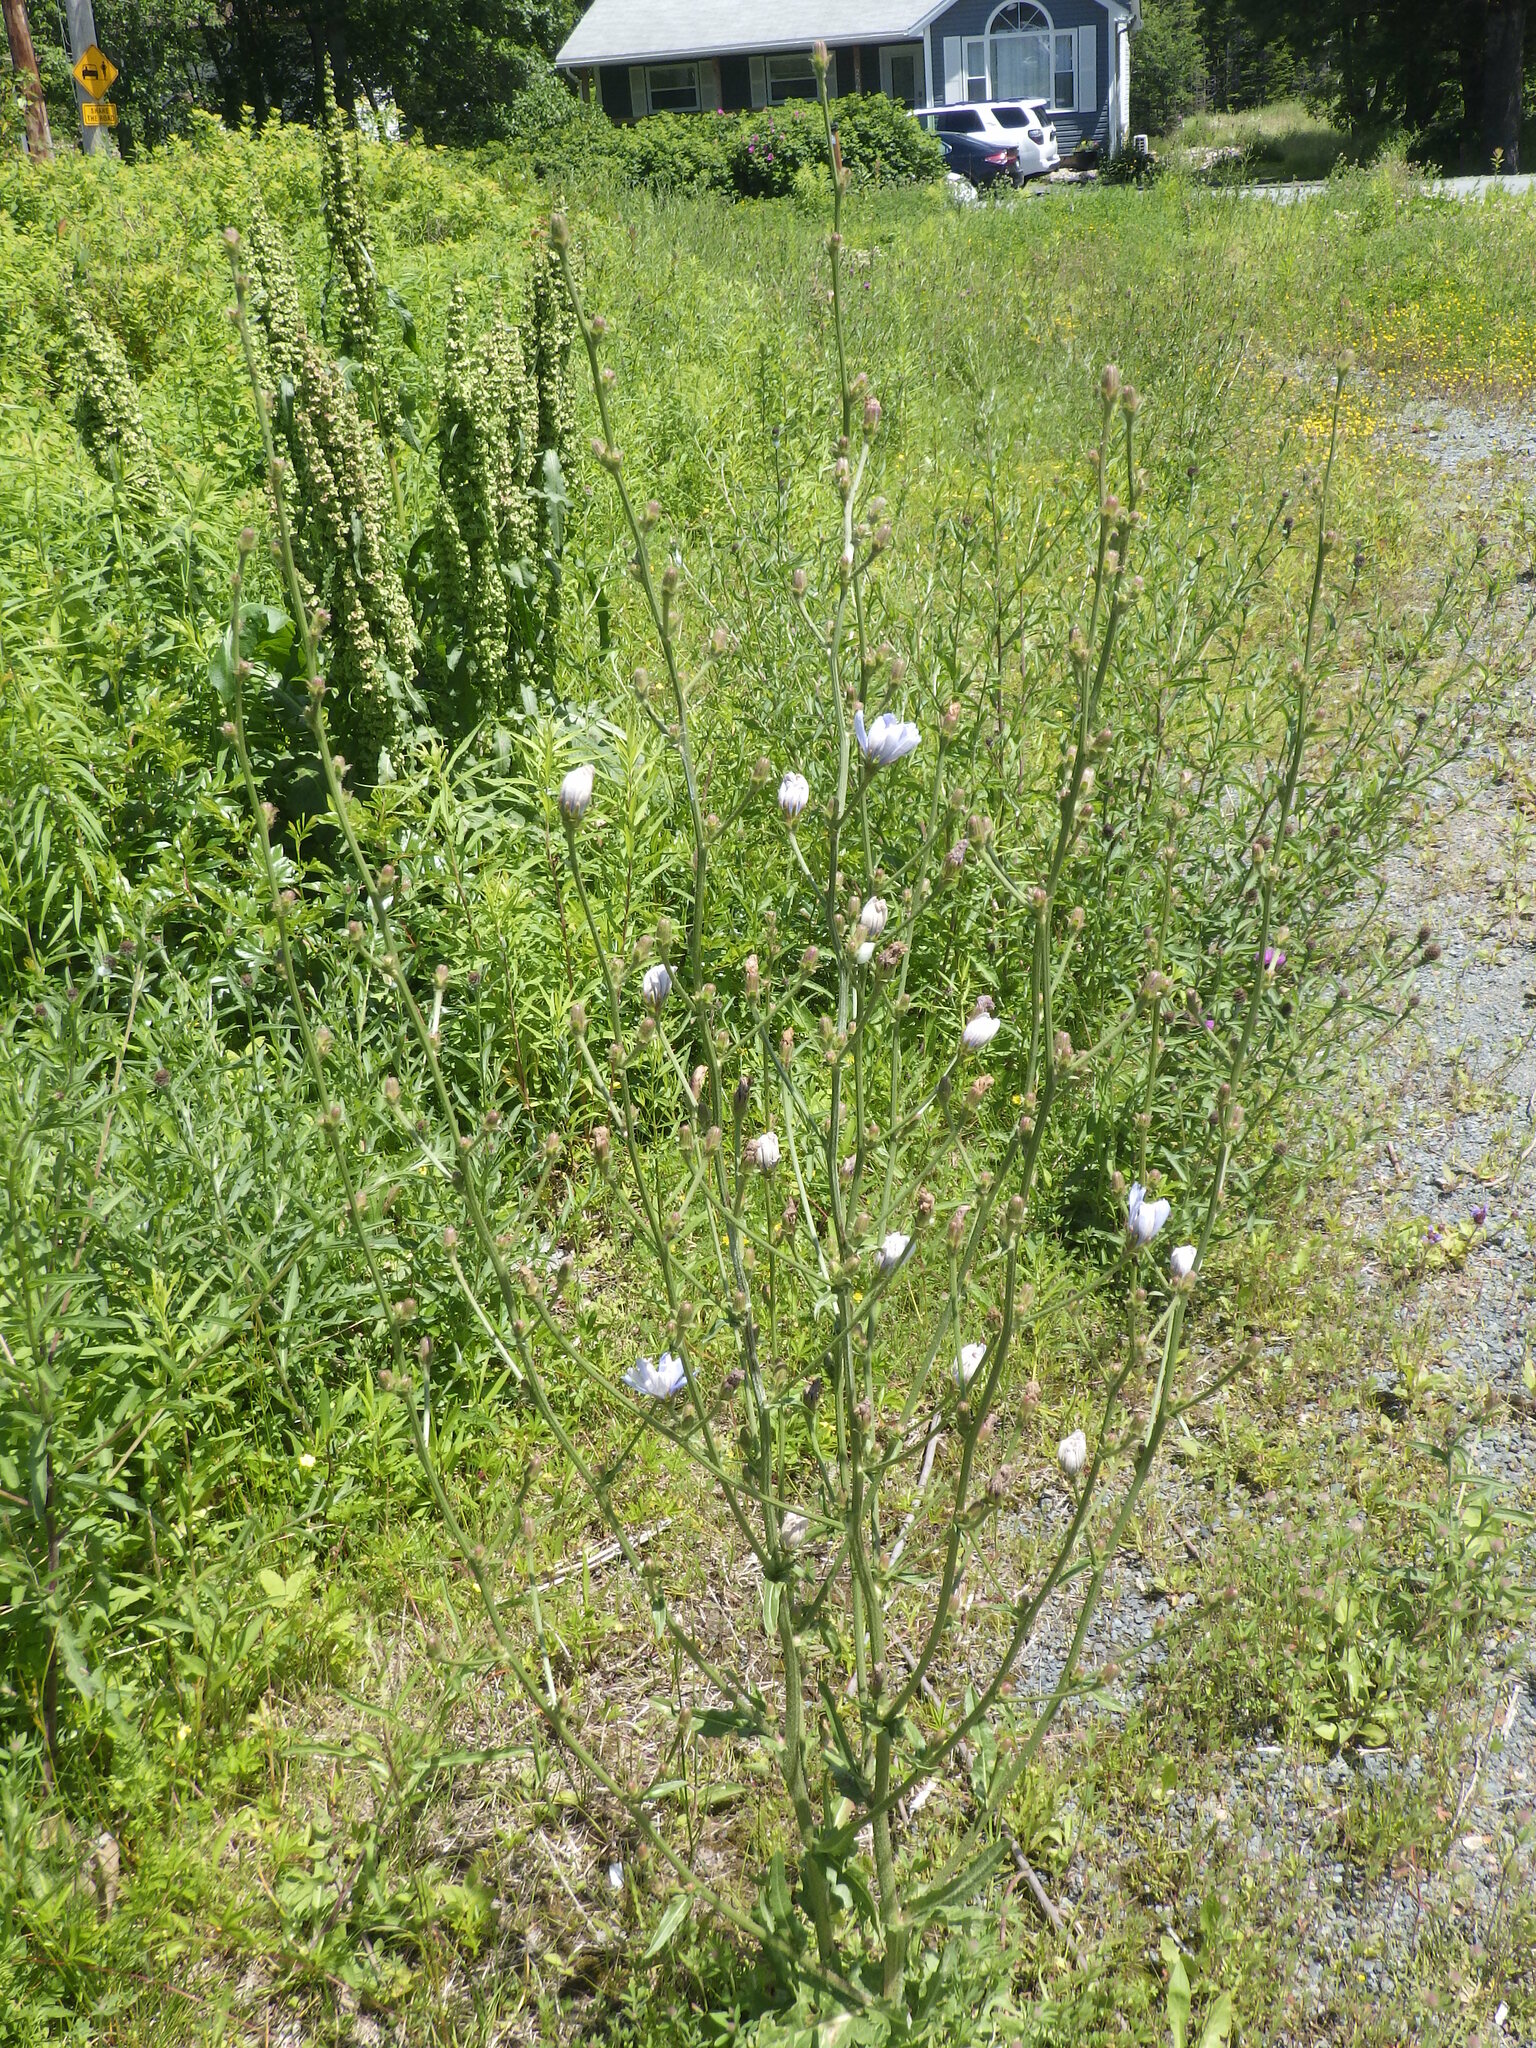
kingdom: Plantae
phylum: Tracheophyta
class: Magnoliopsida
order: Asterales
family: Asteraceae
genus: Cichorium
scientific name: Cichorium intybus
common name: Chicory
